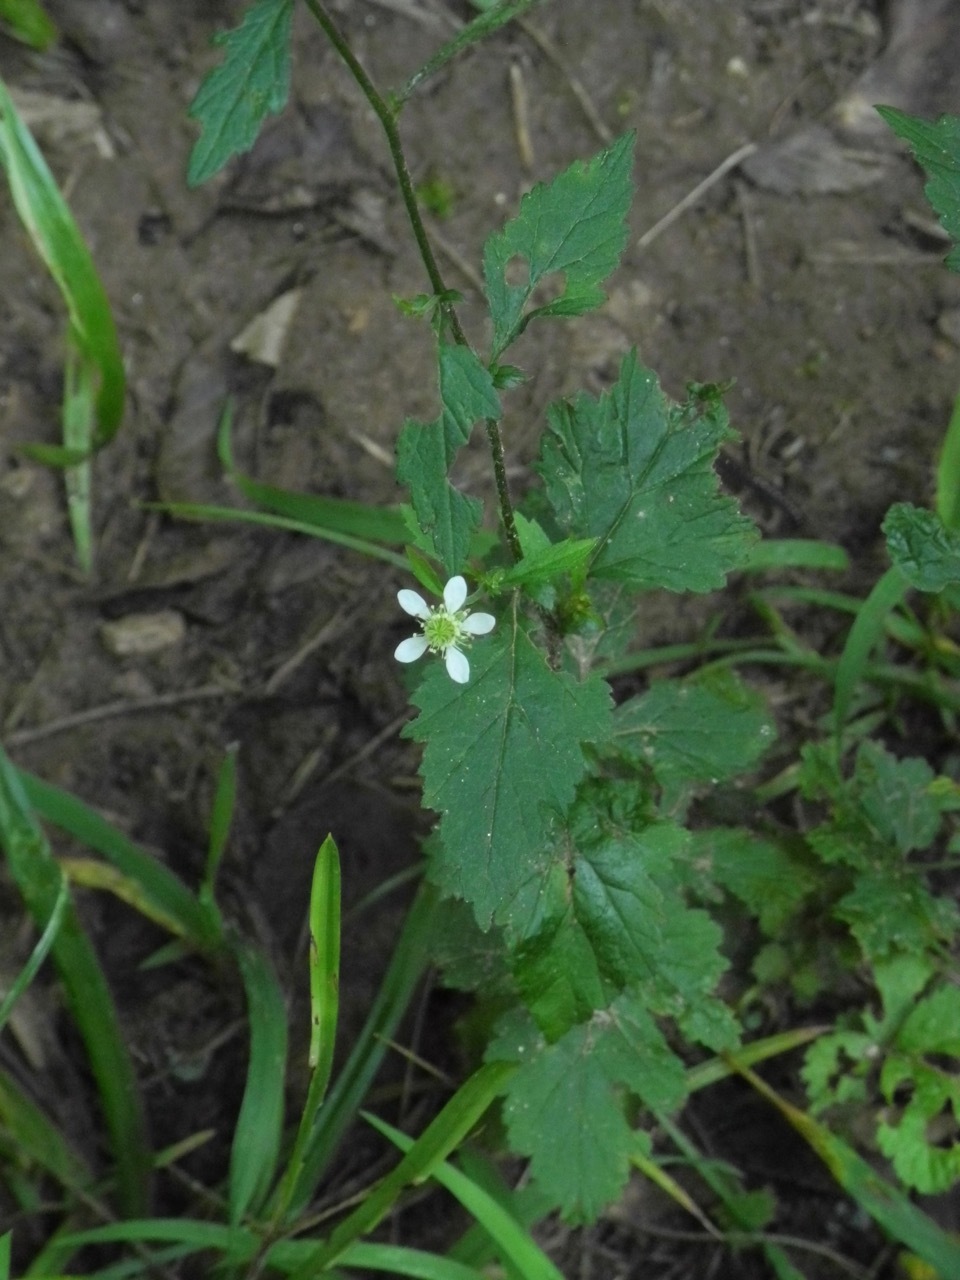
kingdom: Plantae
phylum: Tracheophyta
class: Magnoliopsida
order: Rosales
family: Rosaceae
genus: Geum
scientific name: Geum canadense
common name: White avens
